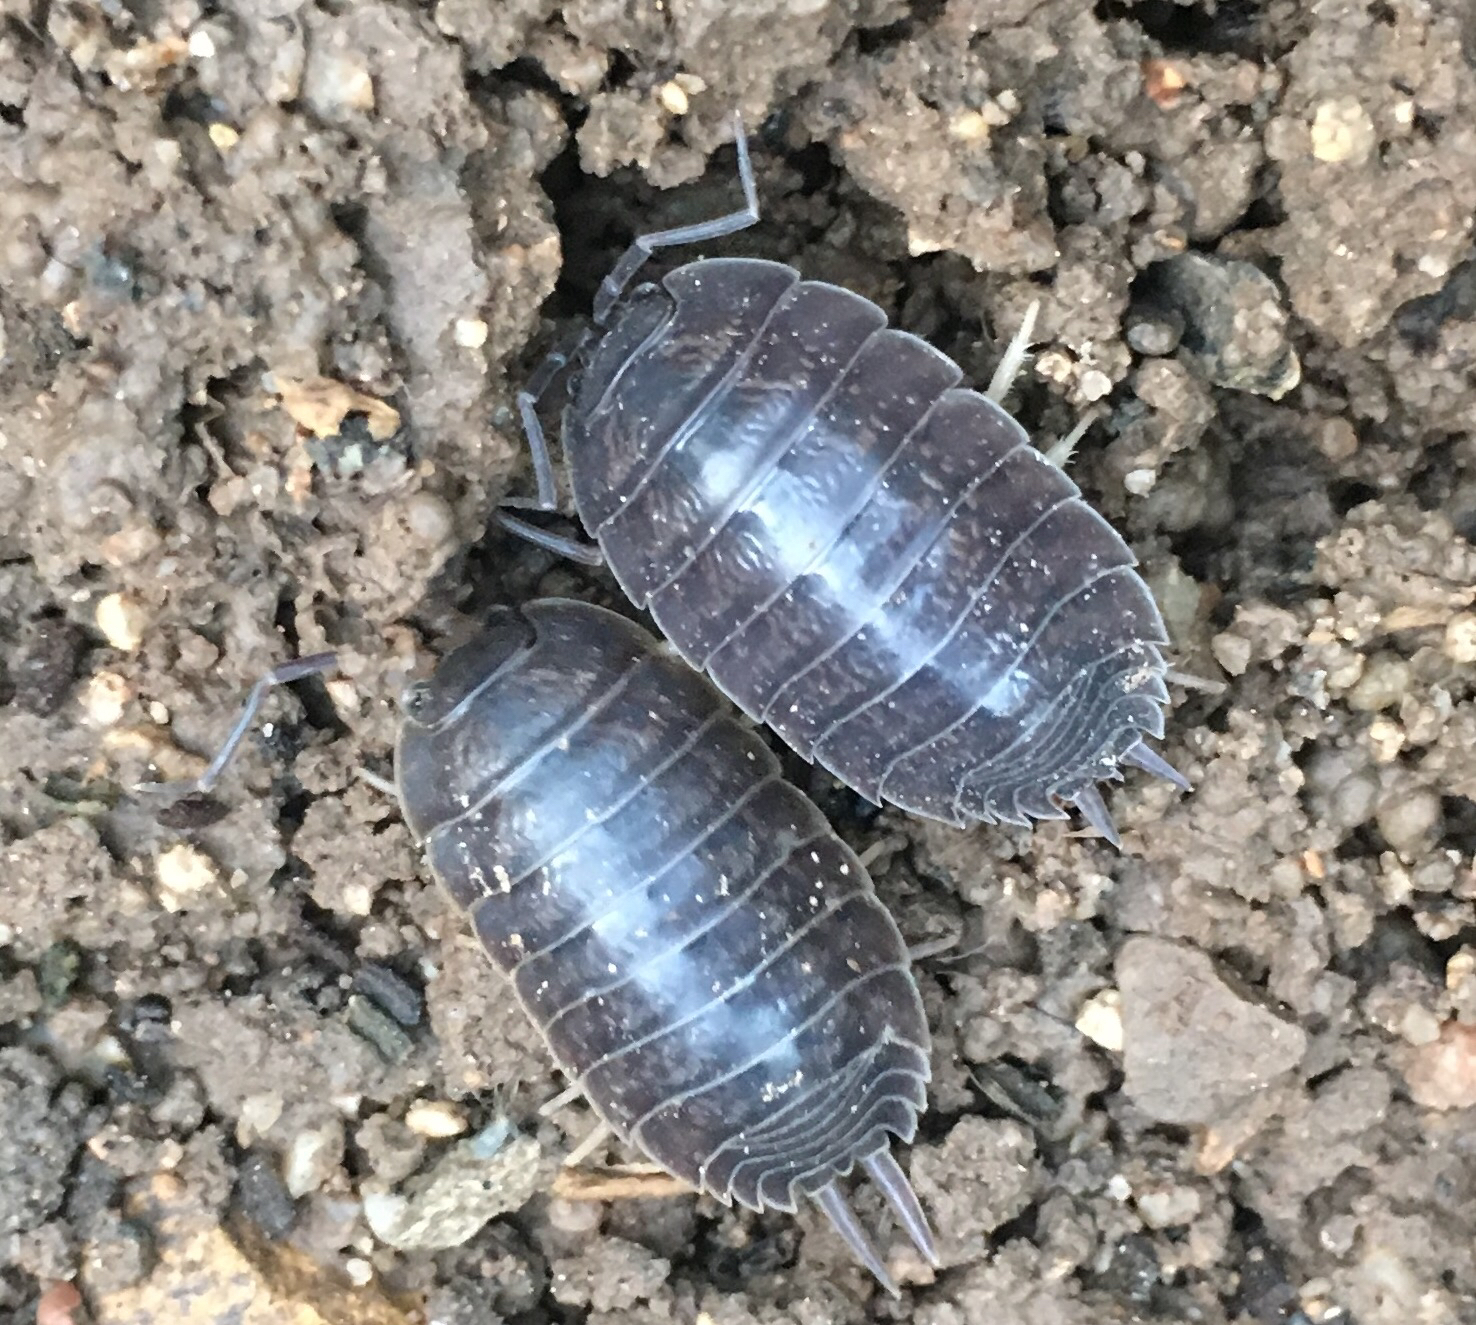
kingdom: Animalia
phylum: Arthropoda
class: Malacostraca
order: Isopoda
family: Porcellionidae
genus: Porcellio
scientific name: Porcellio laevis
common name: Swift woodlouse
